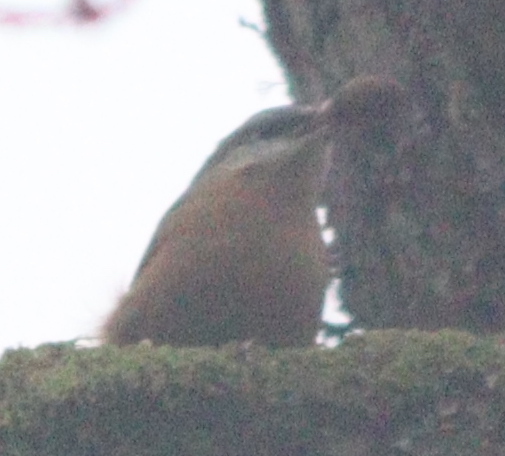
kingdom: Animalia
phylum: Chordata
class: Aves
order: Passeriformes
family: Sittidae
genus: Sitta
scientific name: Sitta europaea
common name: Eurasian nuthatch
